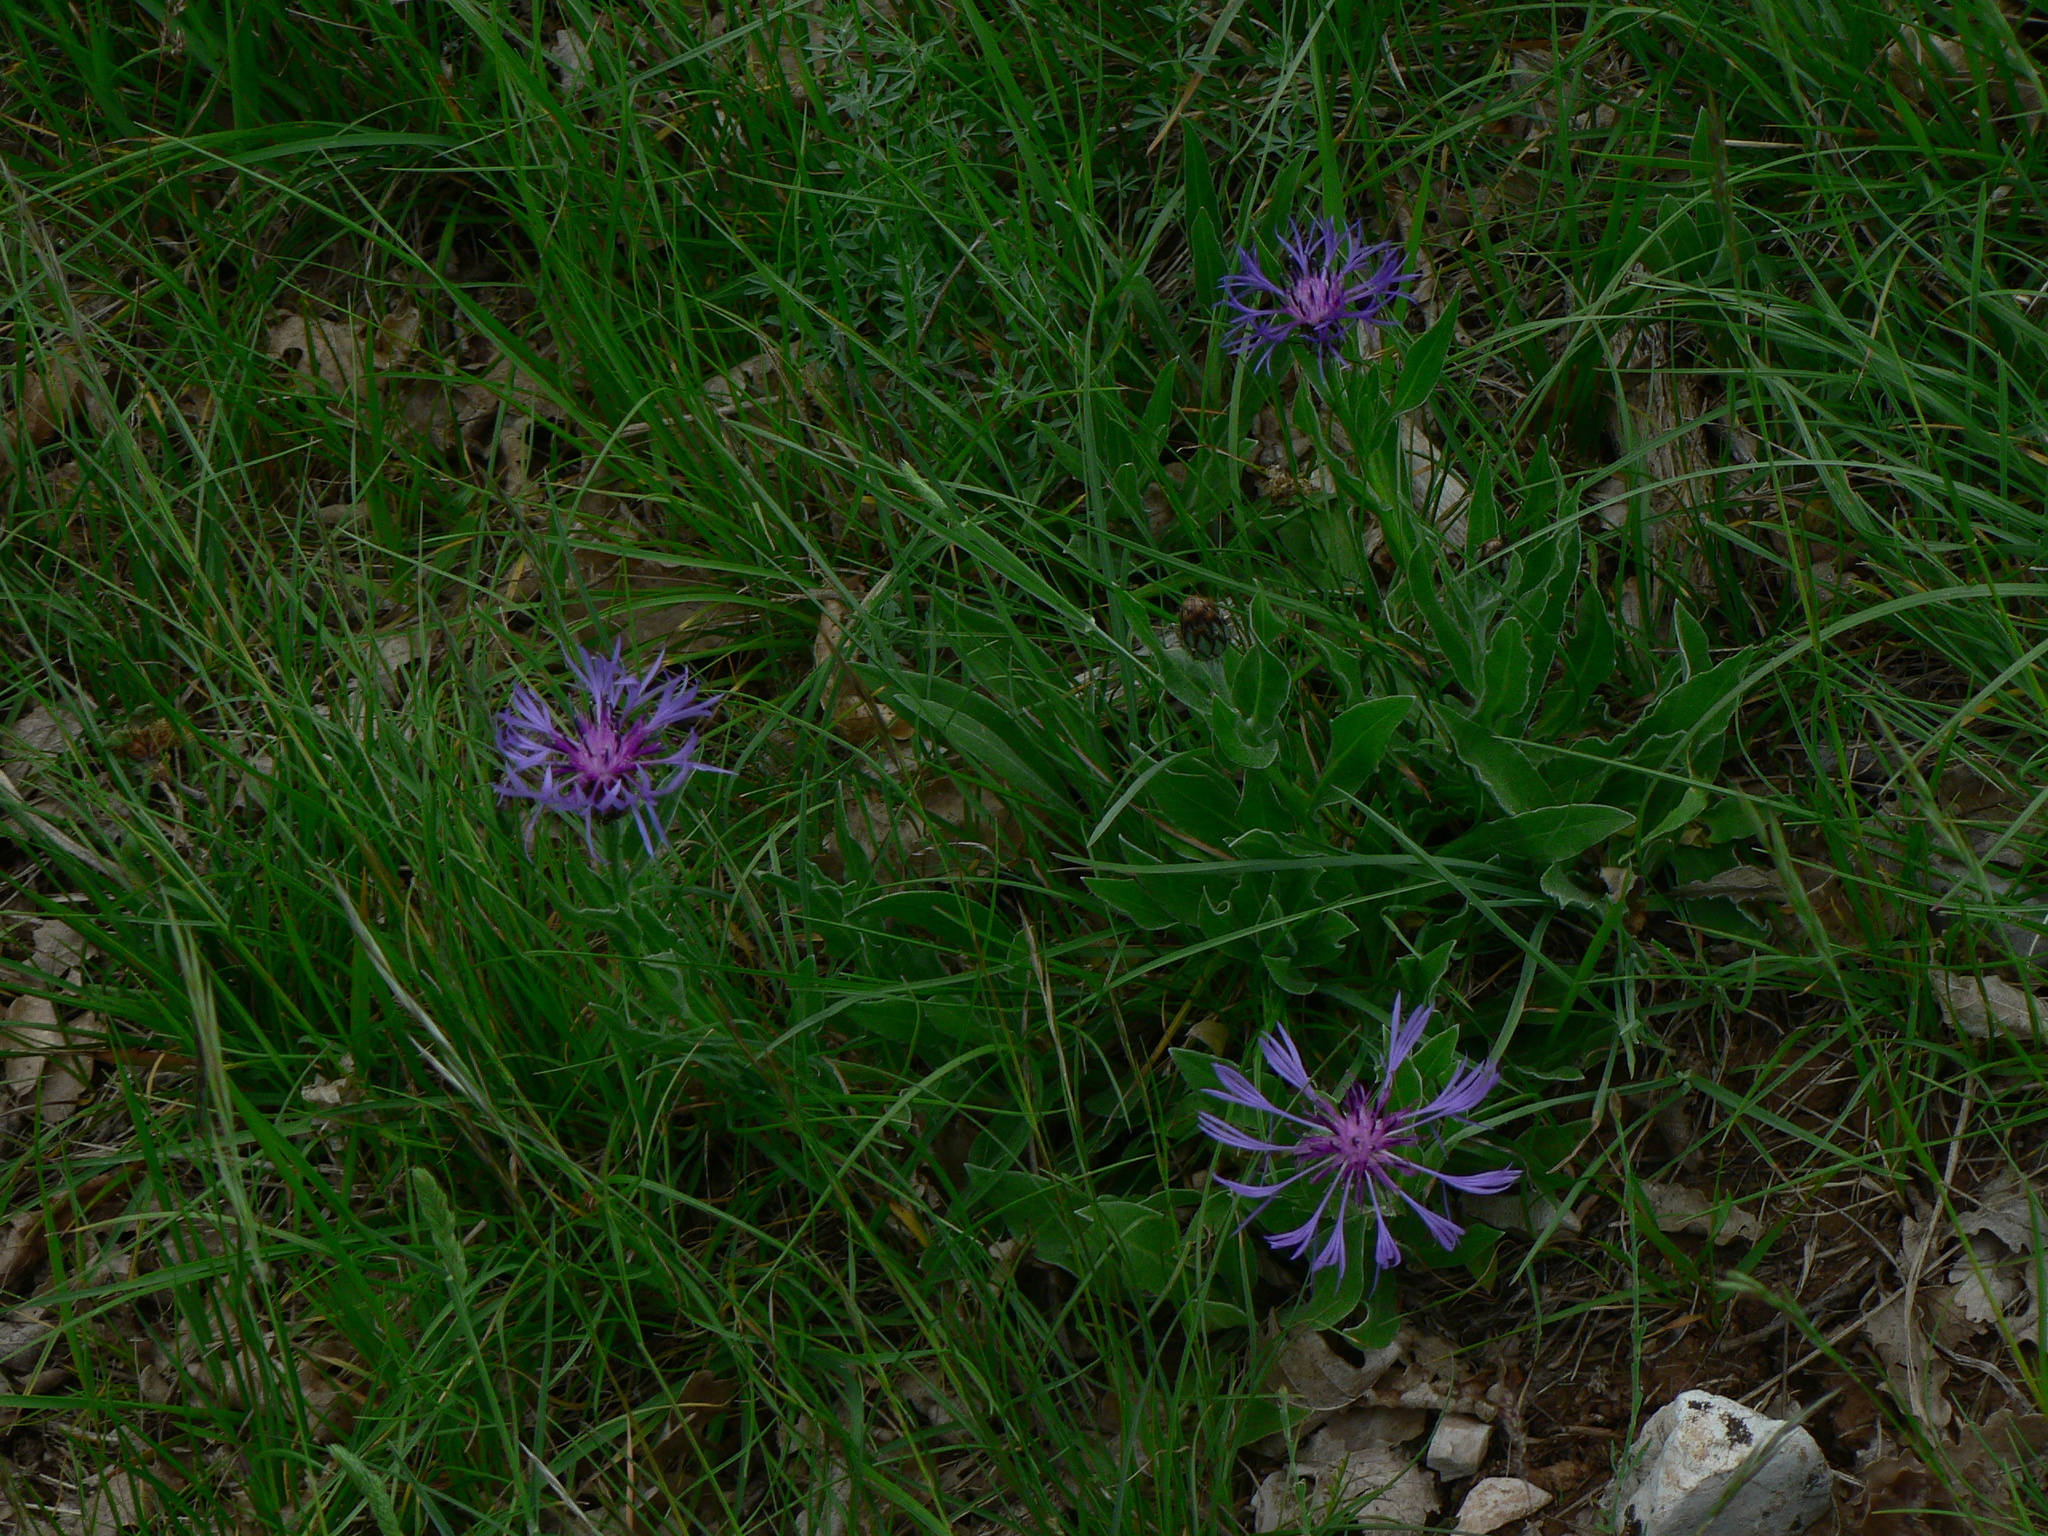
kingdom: Plantae
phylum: Tracheophyta
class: Magnoliopsida
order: Asterales
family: Asteraceae
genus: Centaurea
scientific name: Centaurea montana
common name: Perennial cornflower
